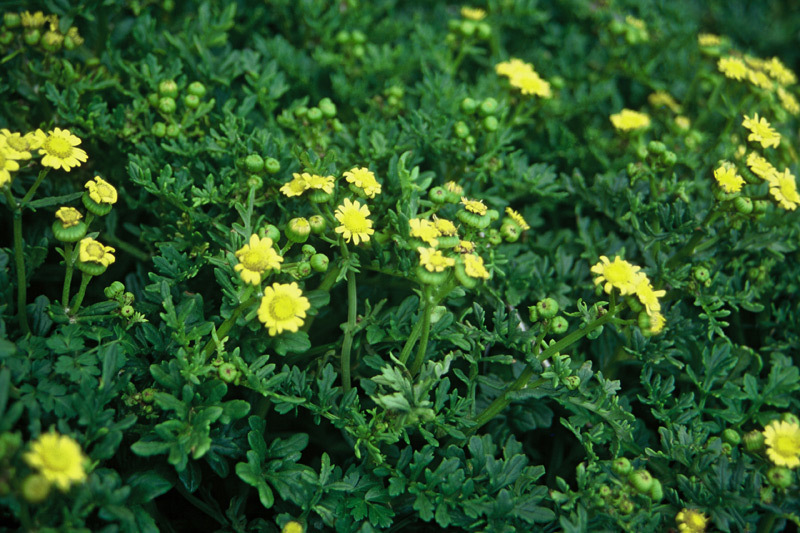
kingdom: Plantae
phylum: Tracheophyta
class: Magnoliopsida
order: Asterales
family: Asteraceae
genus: Senecio
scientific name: Senecio sterquilinus
